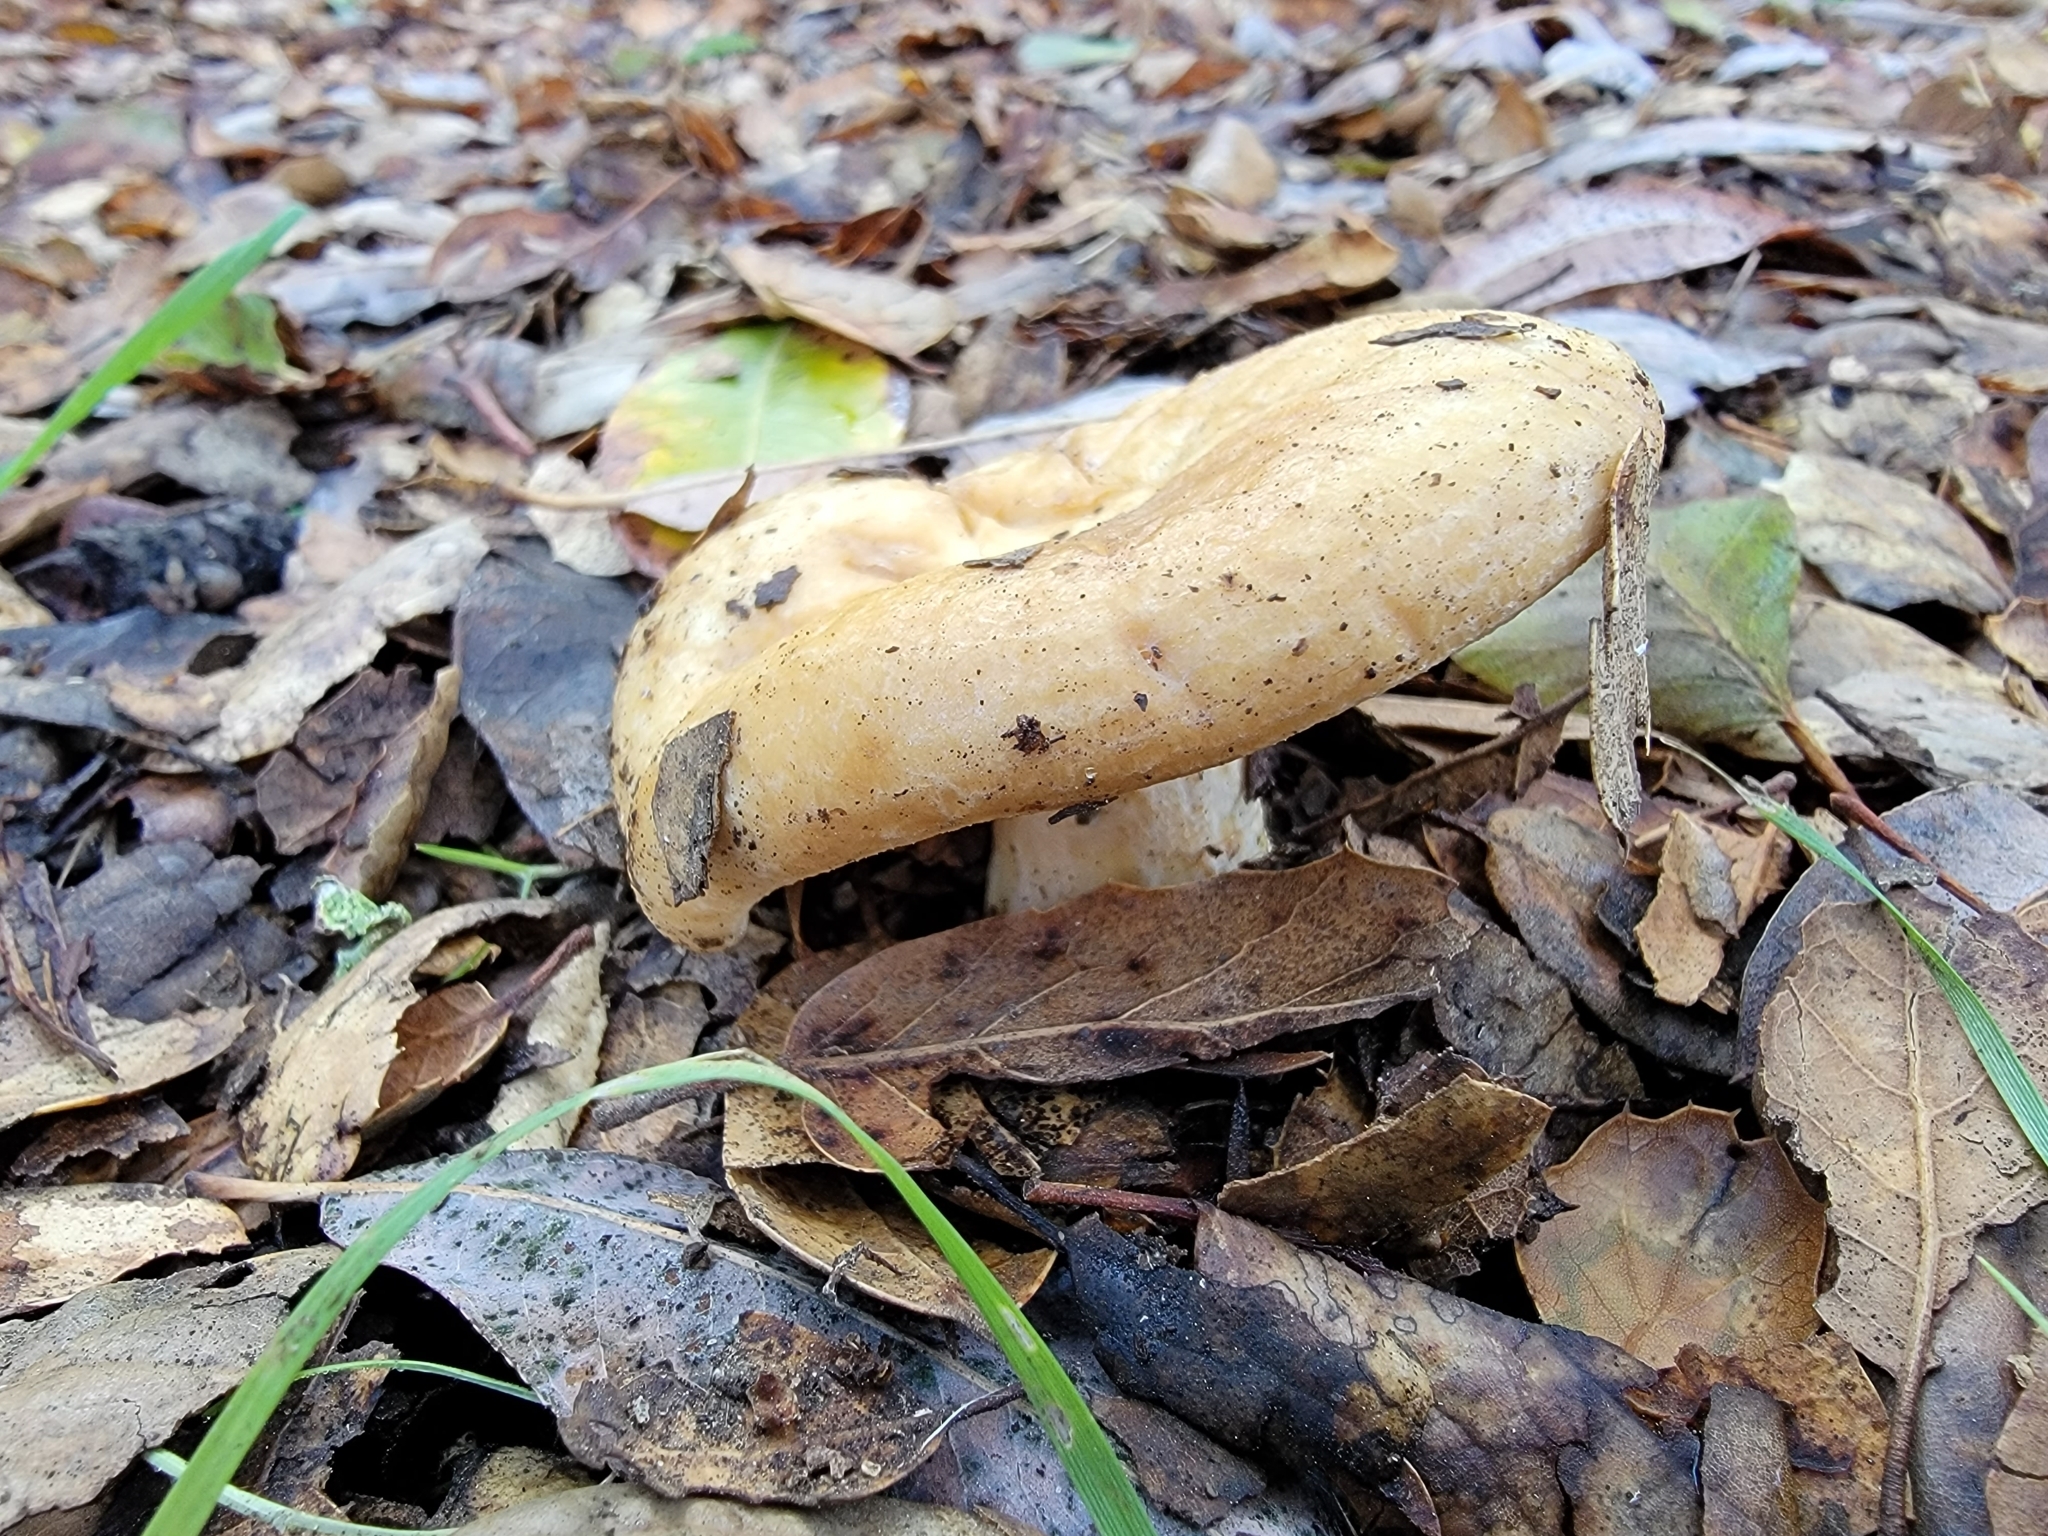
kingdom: Fungi
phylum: Basidiomycota
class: Agaricomycetes
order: Russulales
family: Russulaceae
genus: Lactarius
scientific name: Lactarius alnicola
